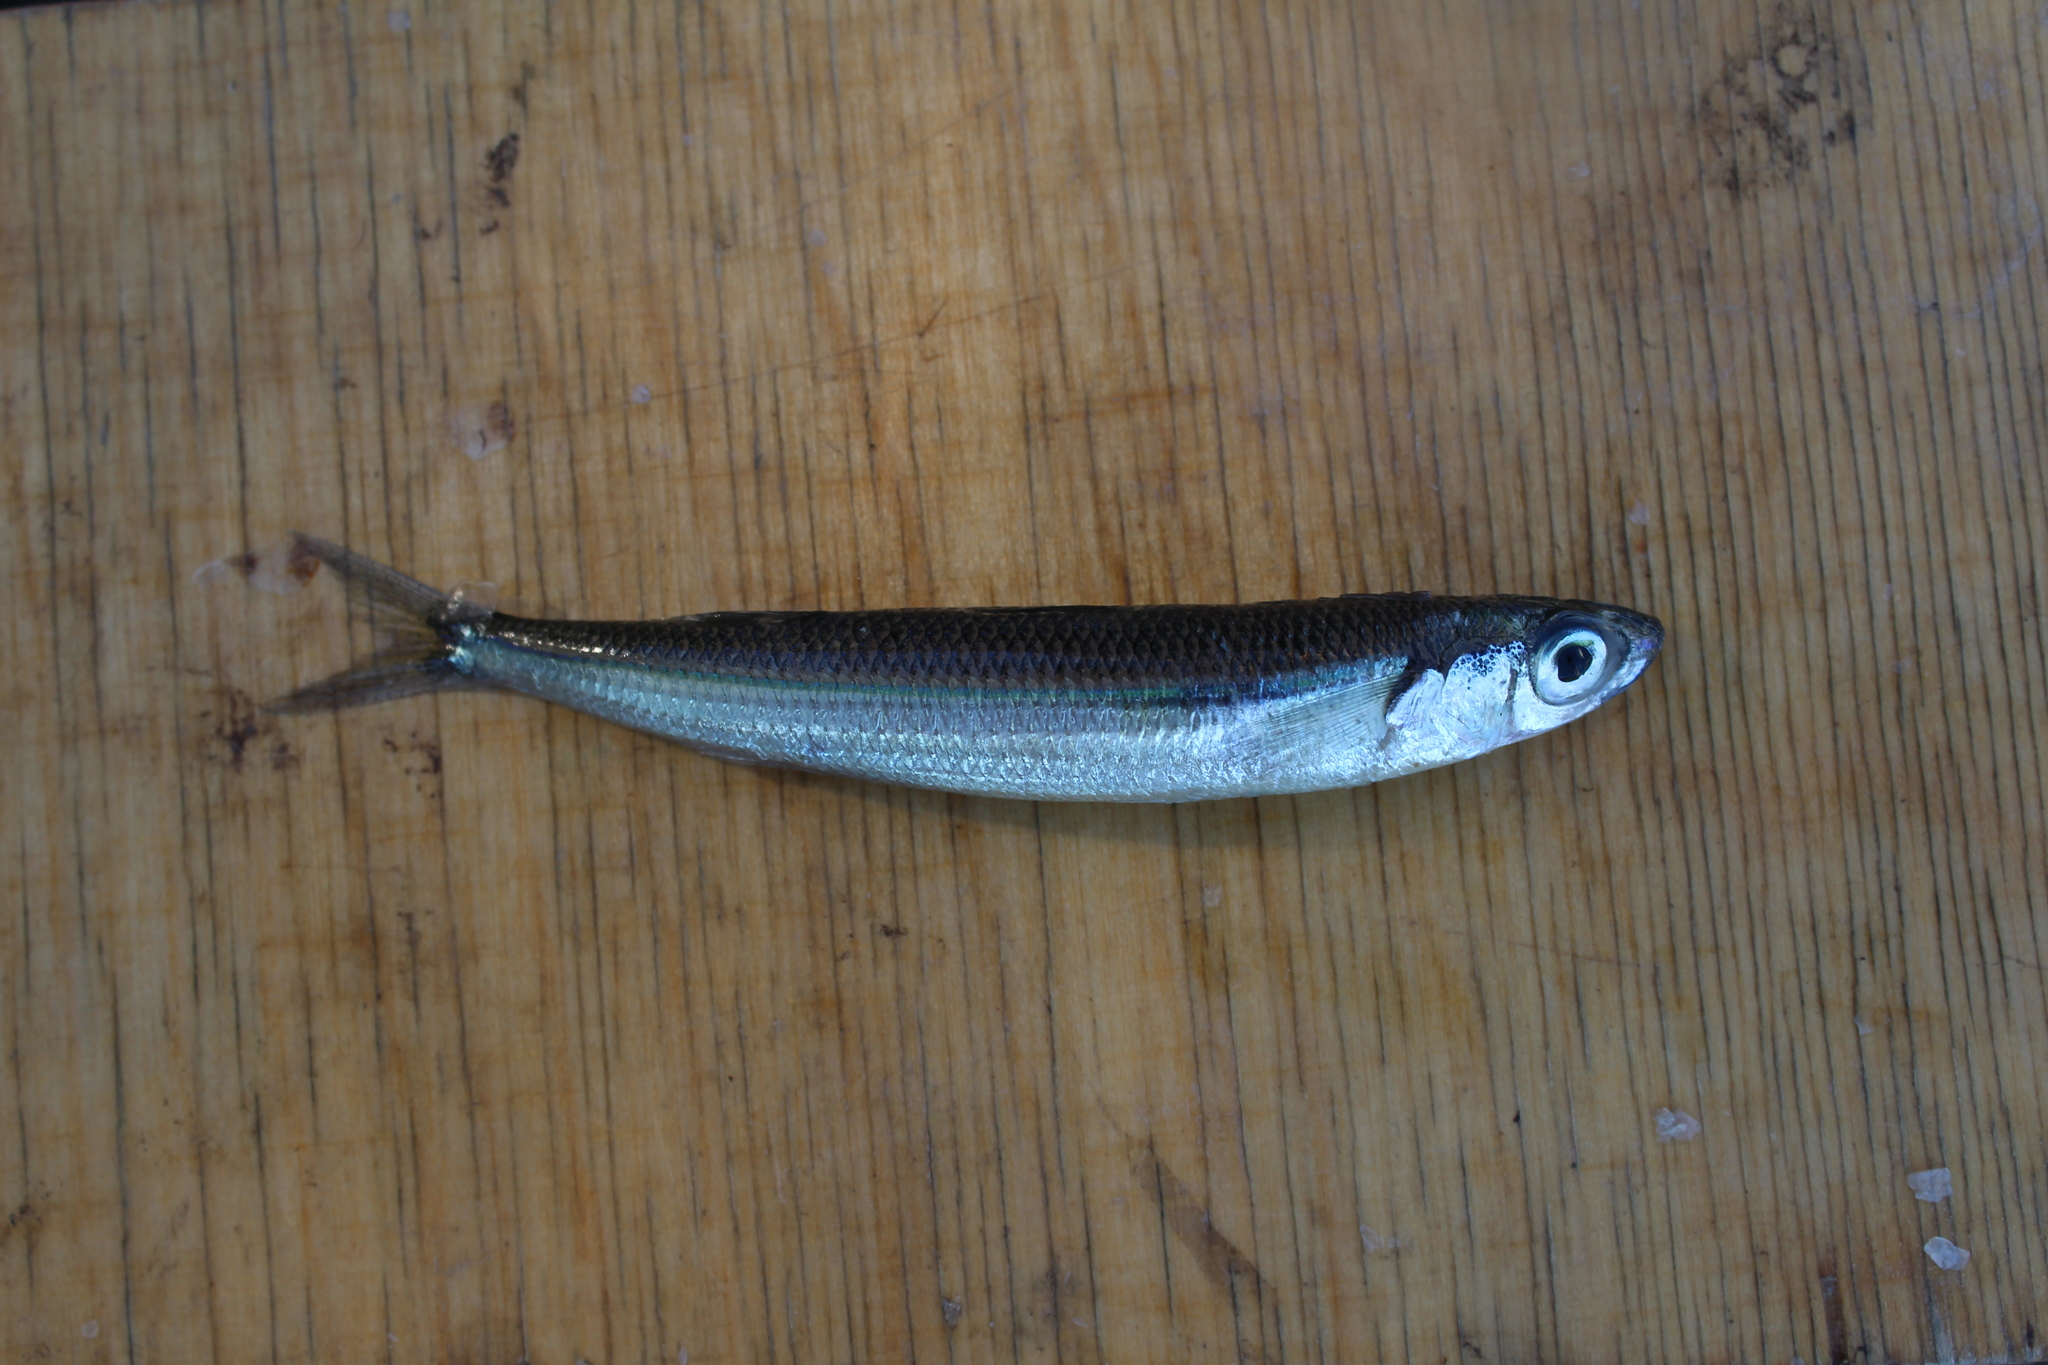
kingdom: Animalia
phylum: Chordata
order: Atheriniformes
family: Atherinidae
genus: Atherina
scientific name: Atherina hepsetus
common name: Mediterranean sand smelt
